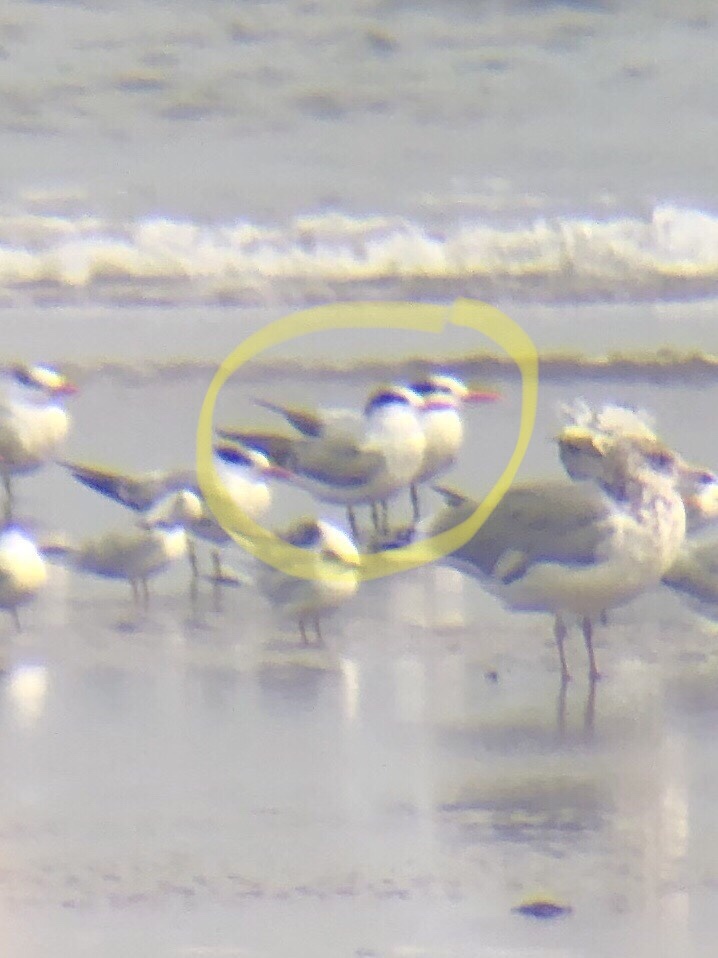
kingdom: Animalia
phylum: Chordata
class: Aves
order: Charadriiformes
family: Laridae
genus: Thalasseus
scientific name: Thalasseus maximus
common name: Royal tern
